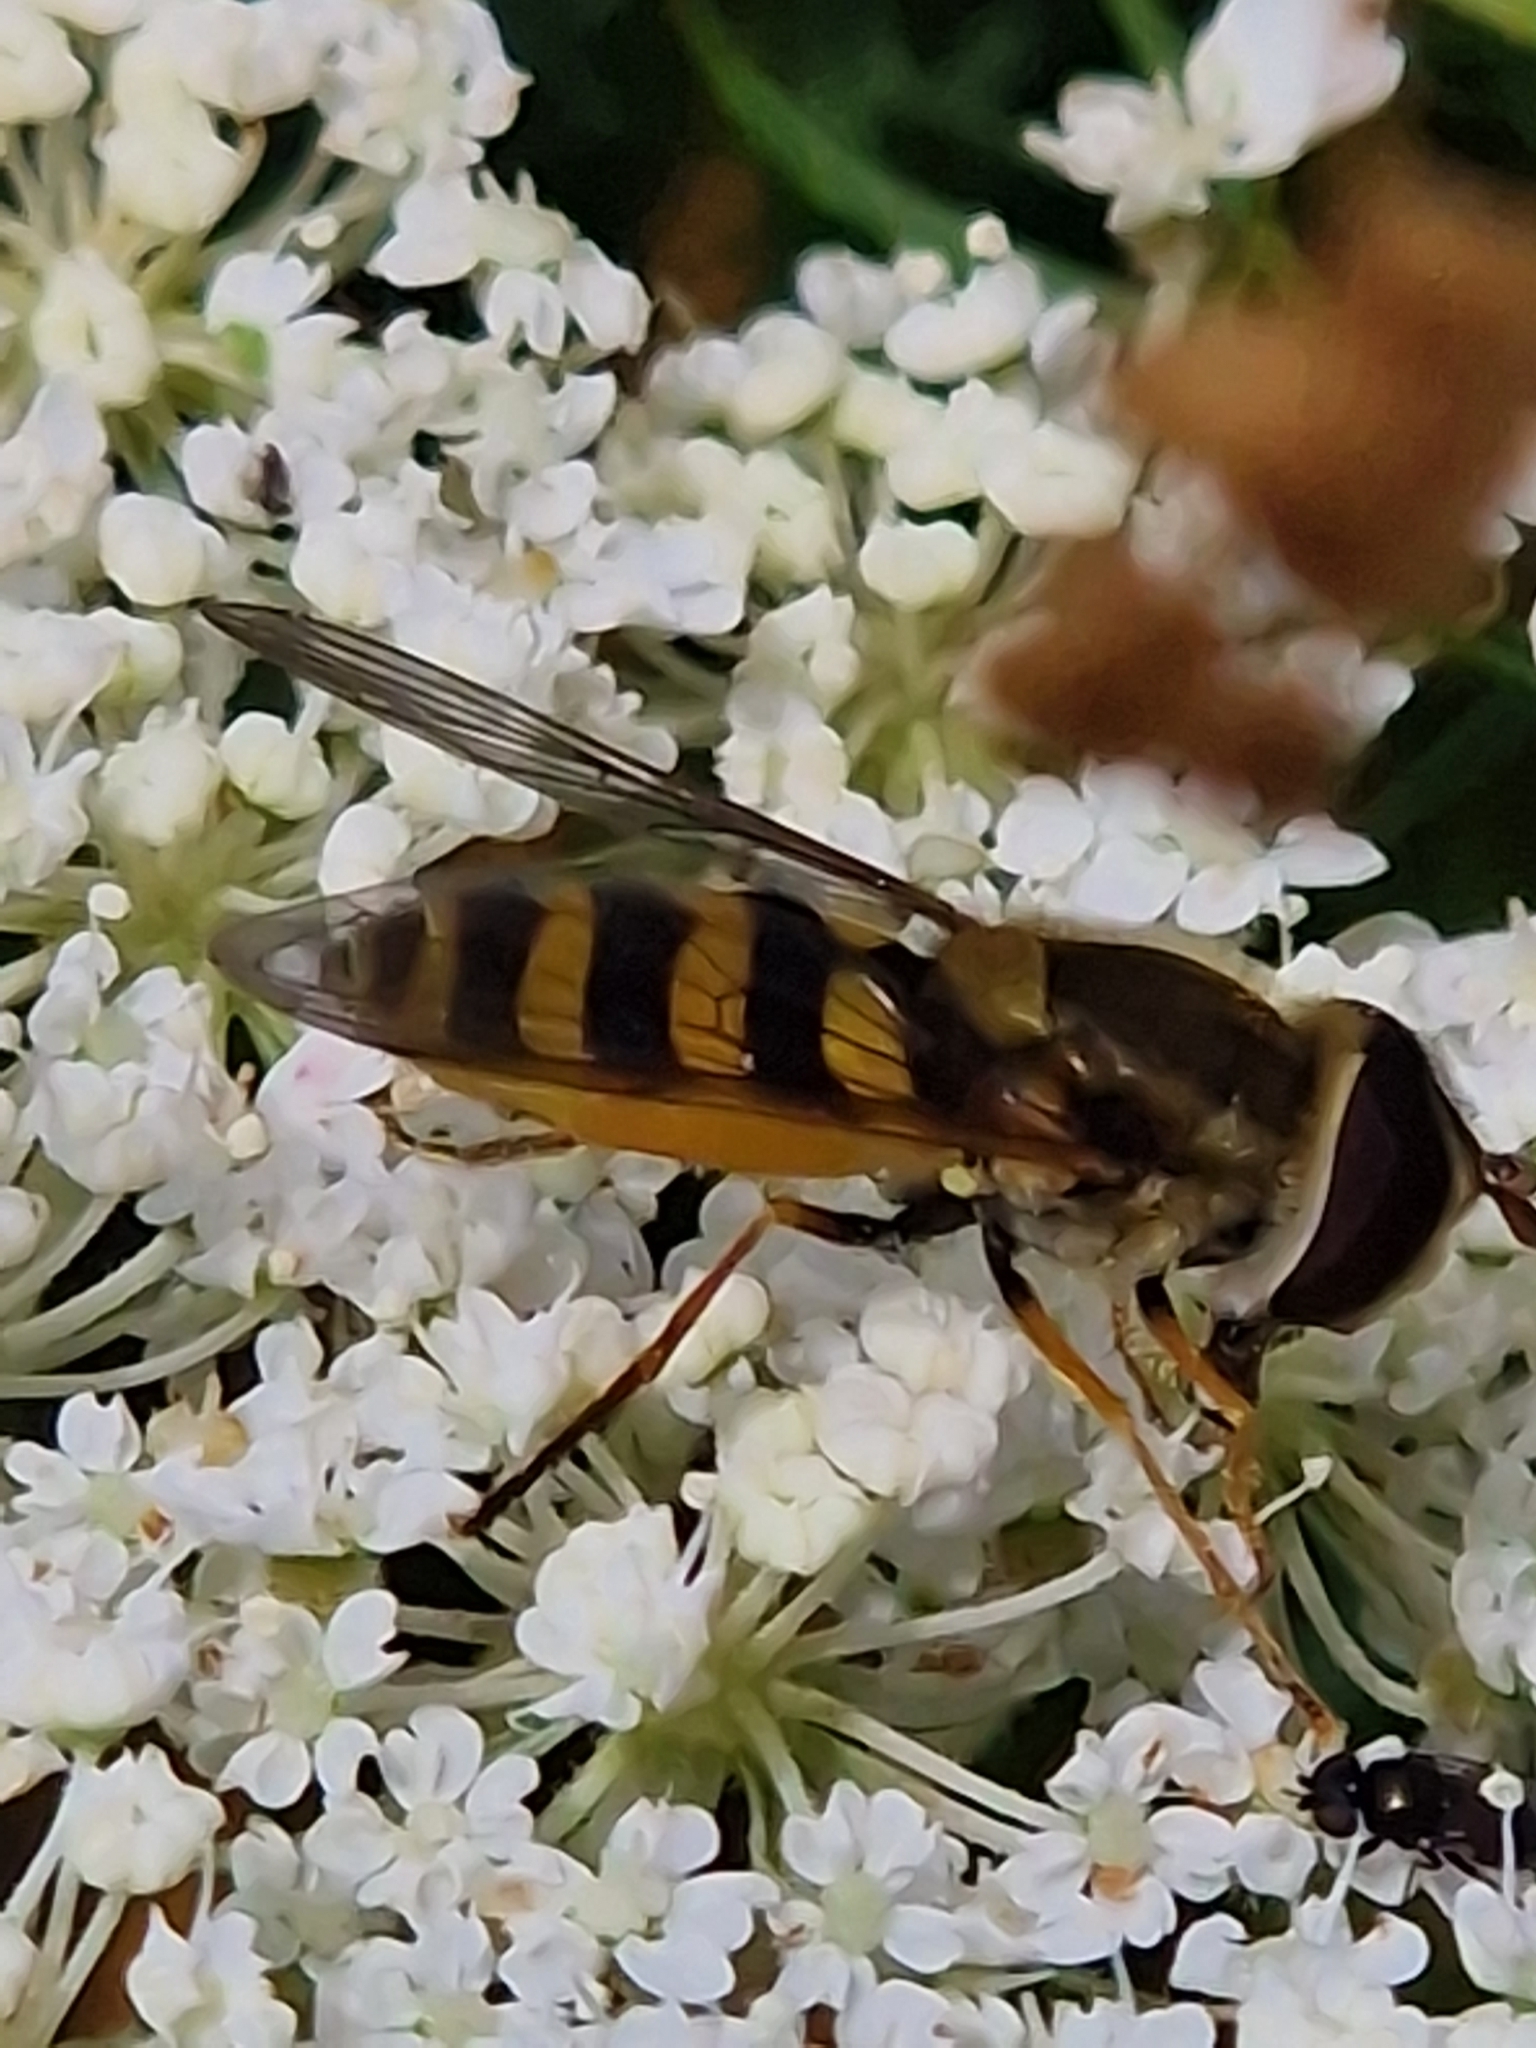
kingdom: Animalia
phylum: Arthropoda
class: Insecta
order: Diptera
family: Syrphidae
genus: Syrphus
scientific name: Syrphus
